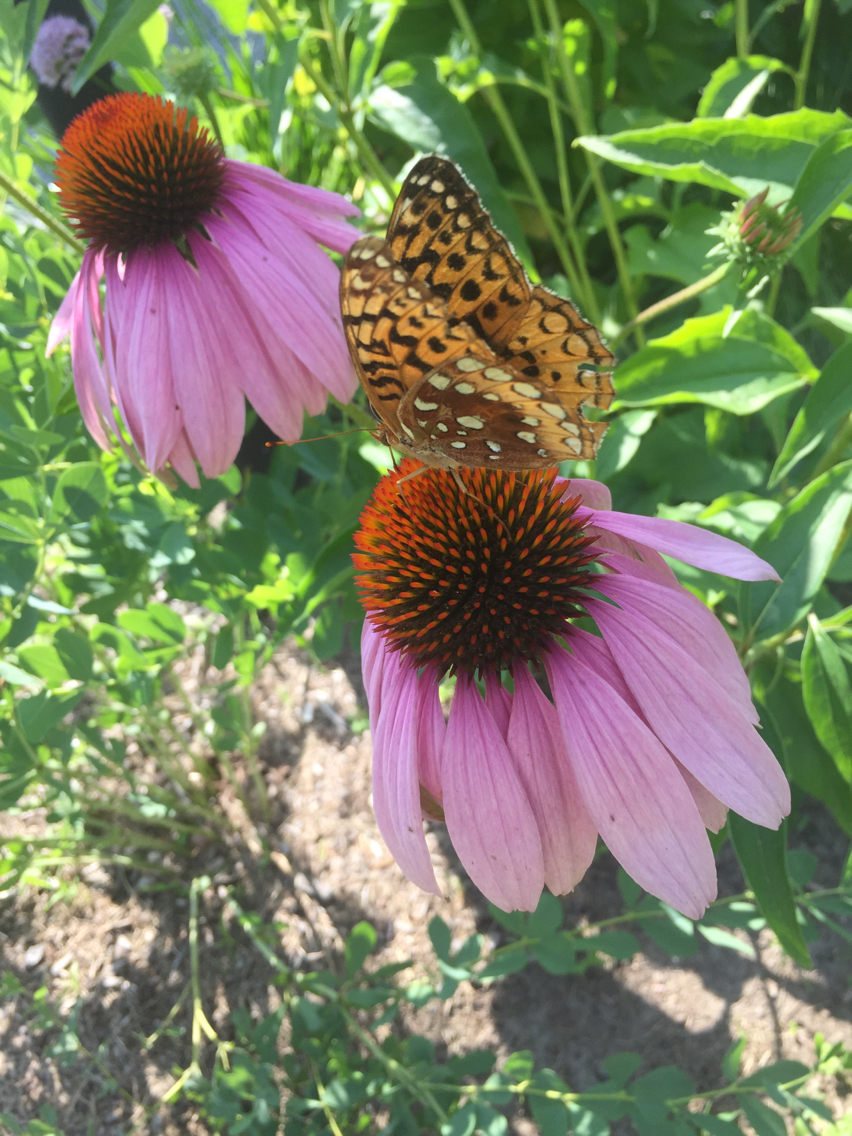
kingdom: Animalia
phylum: Arthropoda
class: Insecta
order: Lepidoptera
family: Nymphalidae
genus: Speyeria
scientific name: Speyeria cybele
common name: Great spangled fritillary
